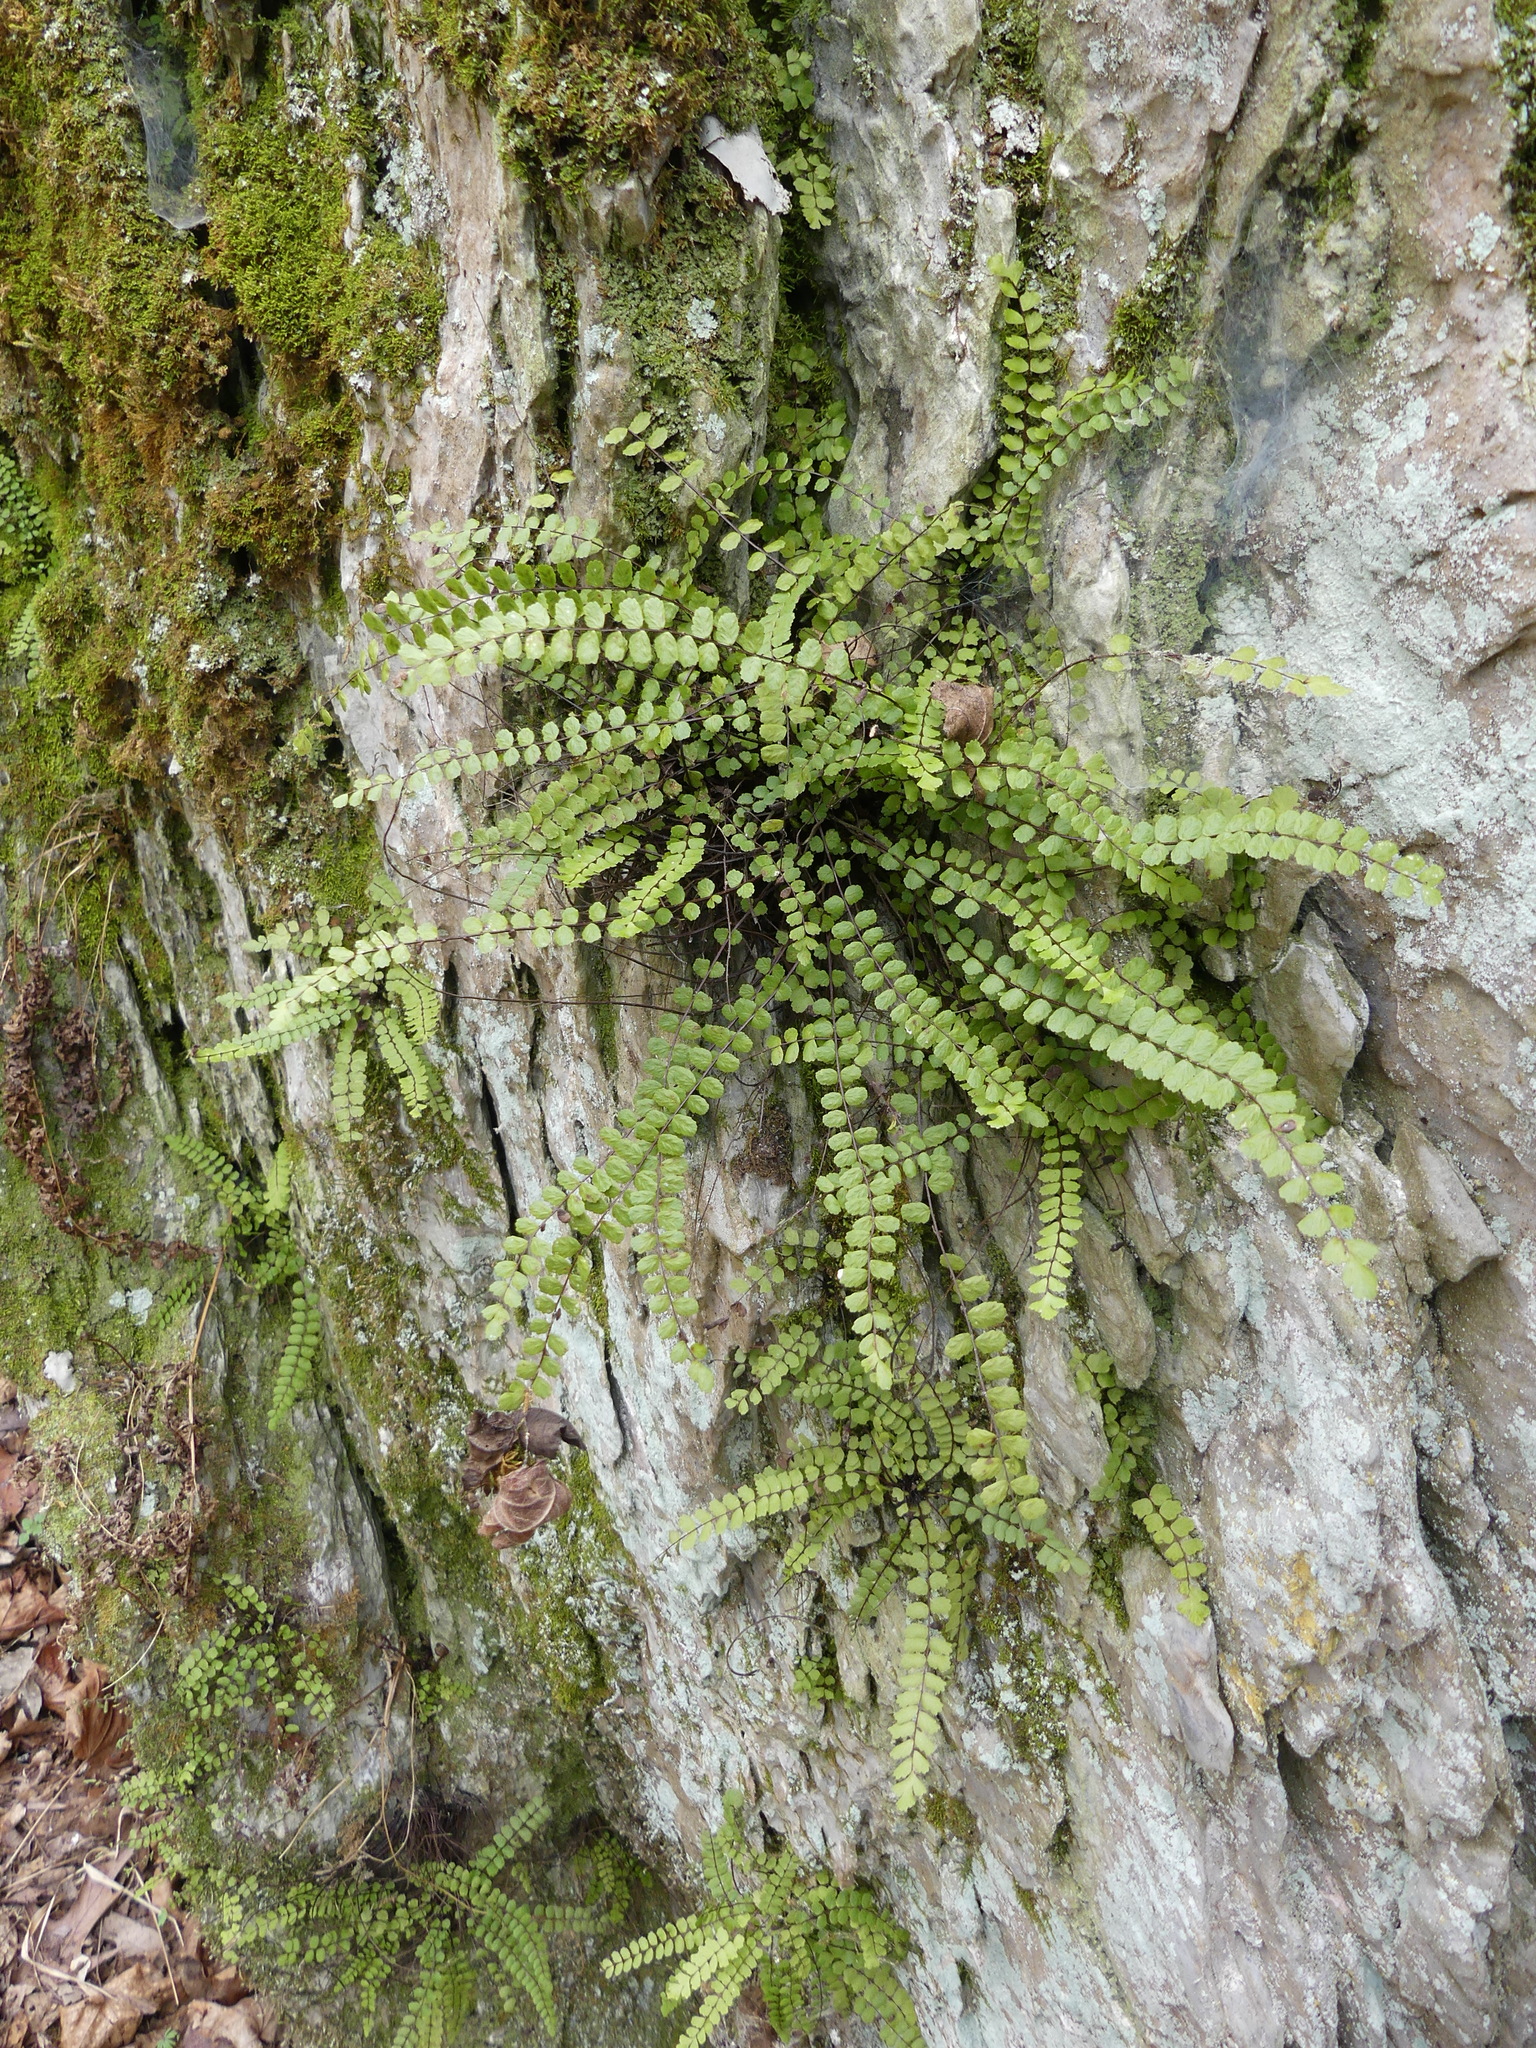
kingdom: Plantae
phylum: Tracheophyta
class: Polypodiopsida
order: Polypodiales
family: Aspleniaceae
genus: Asplenium
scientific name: Asplenium trichomanes
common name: Maidenhair spleenwort
